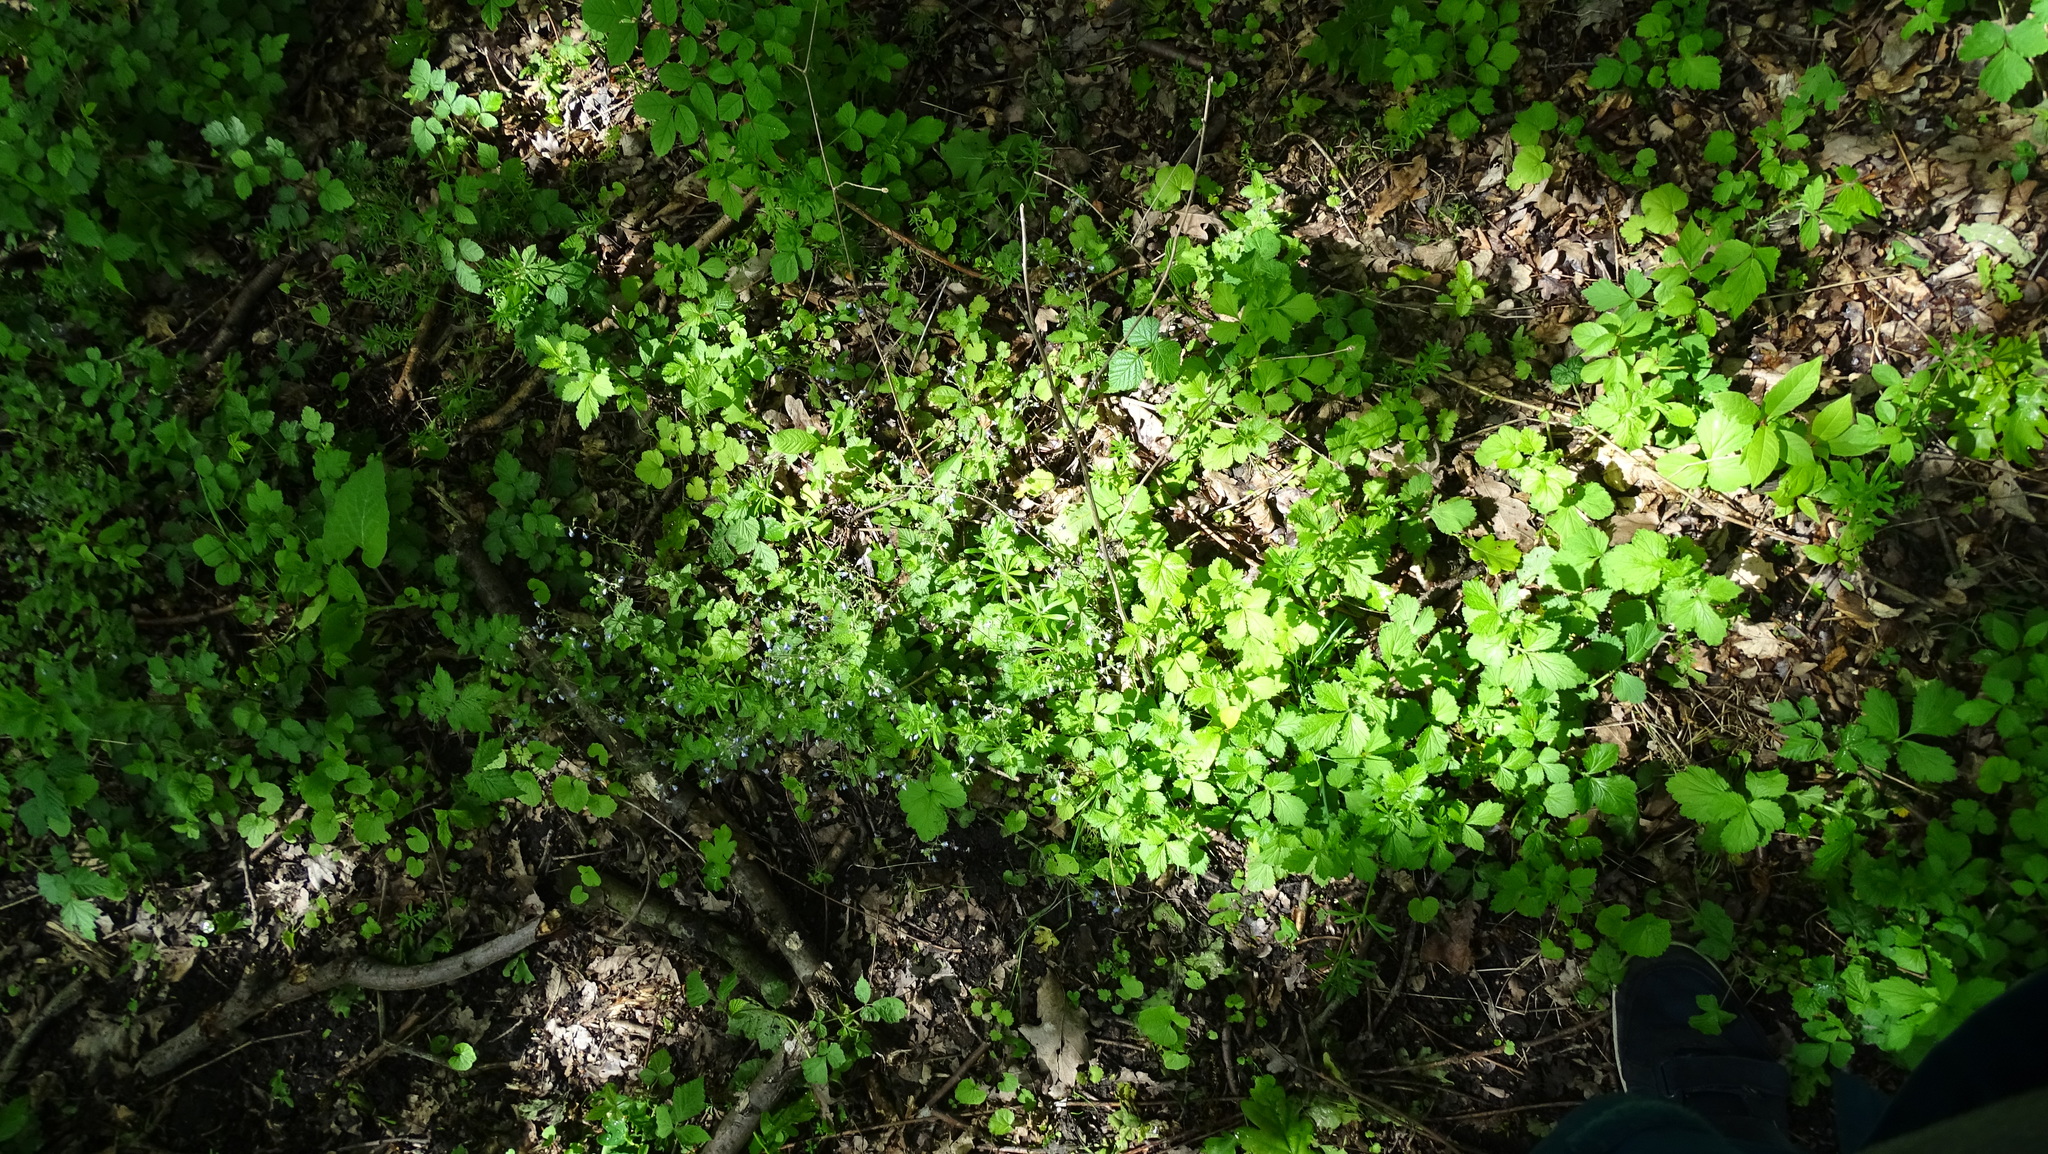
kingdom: Plantae
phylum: Tracheophyta
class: Magnoliopsida
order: Lamiales
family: Plantaginaceae
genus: Veronica
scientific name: Veronica chamaedrys
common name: Germander speedwell
